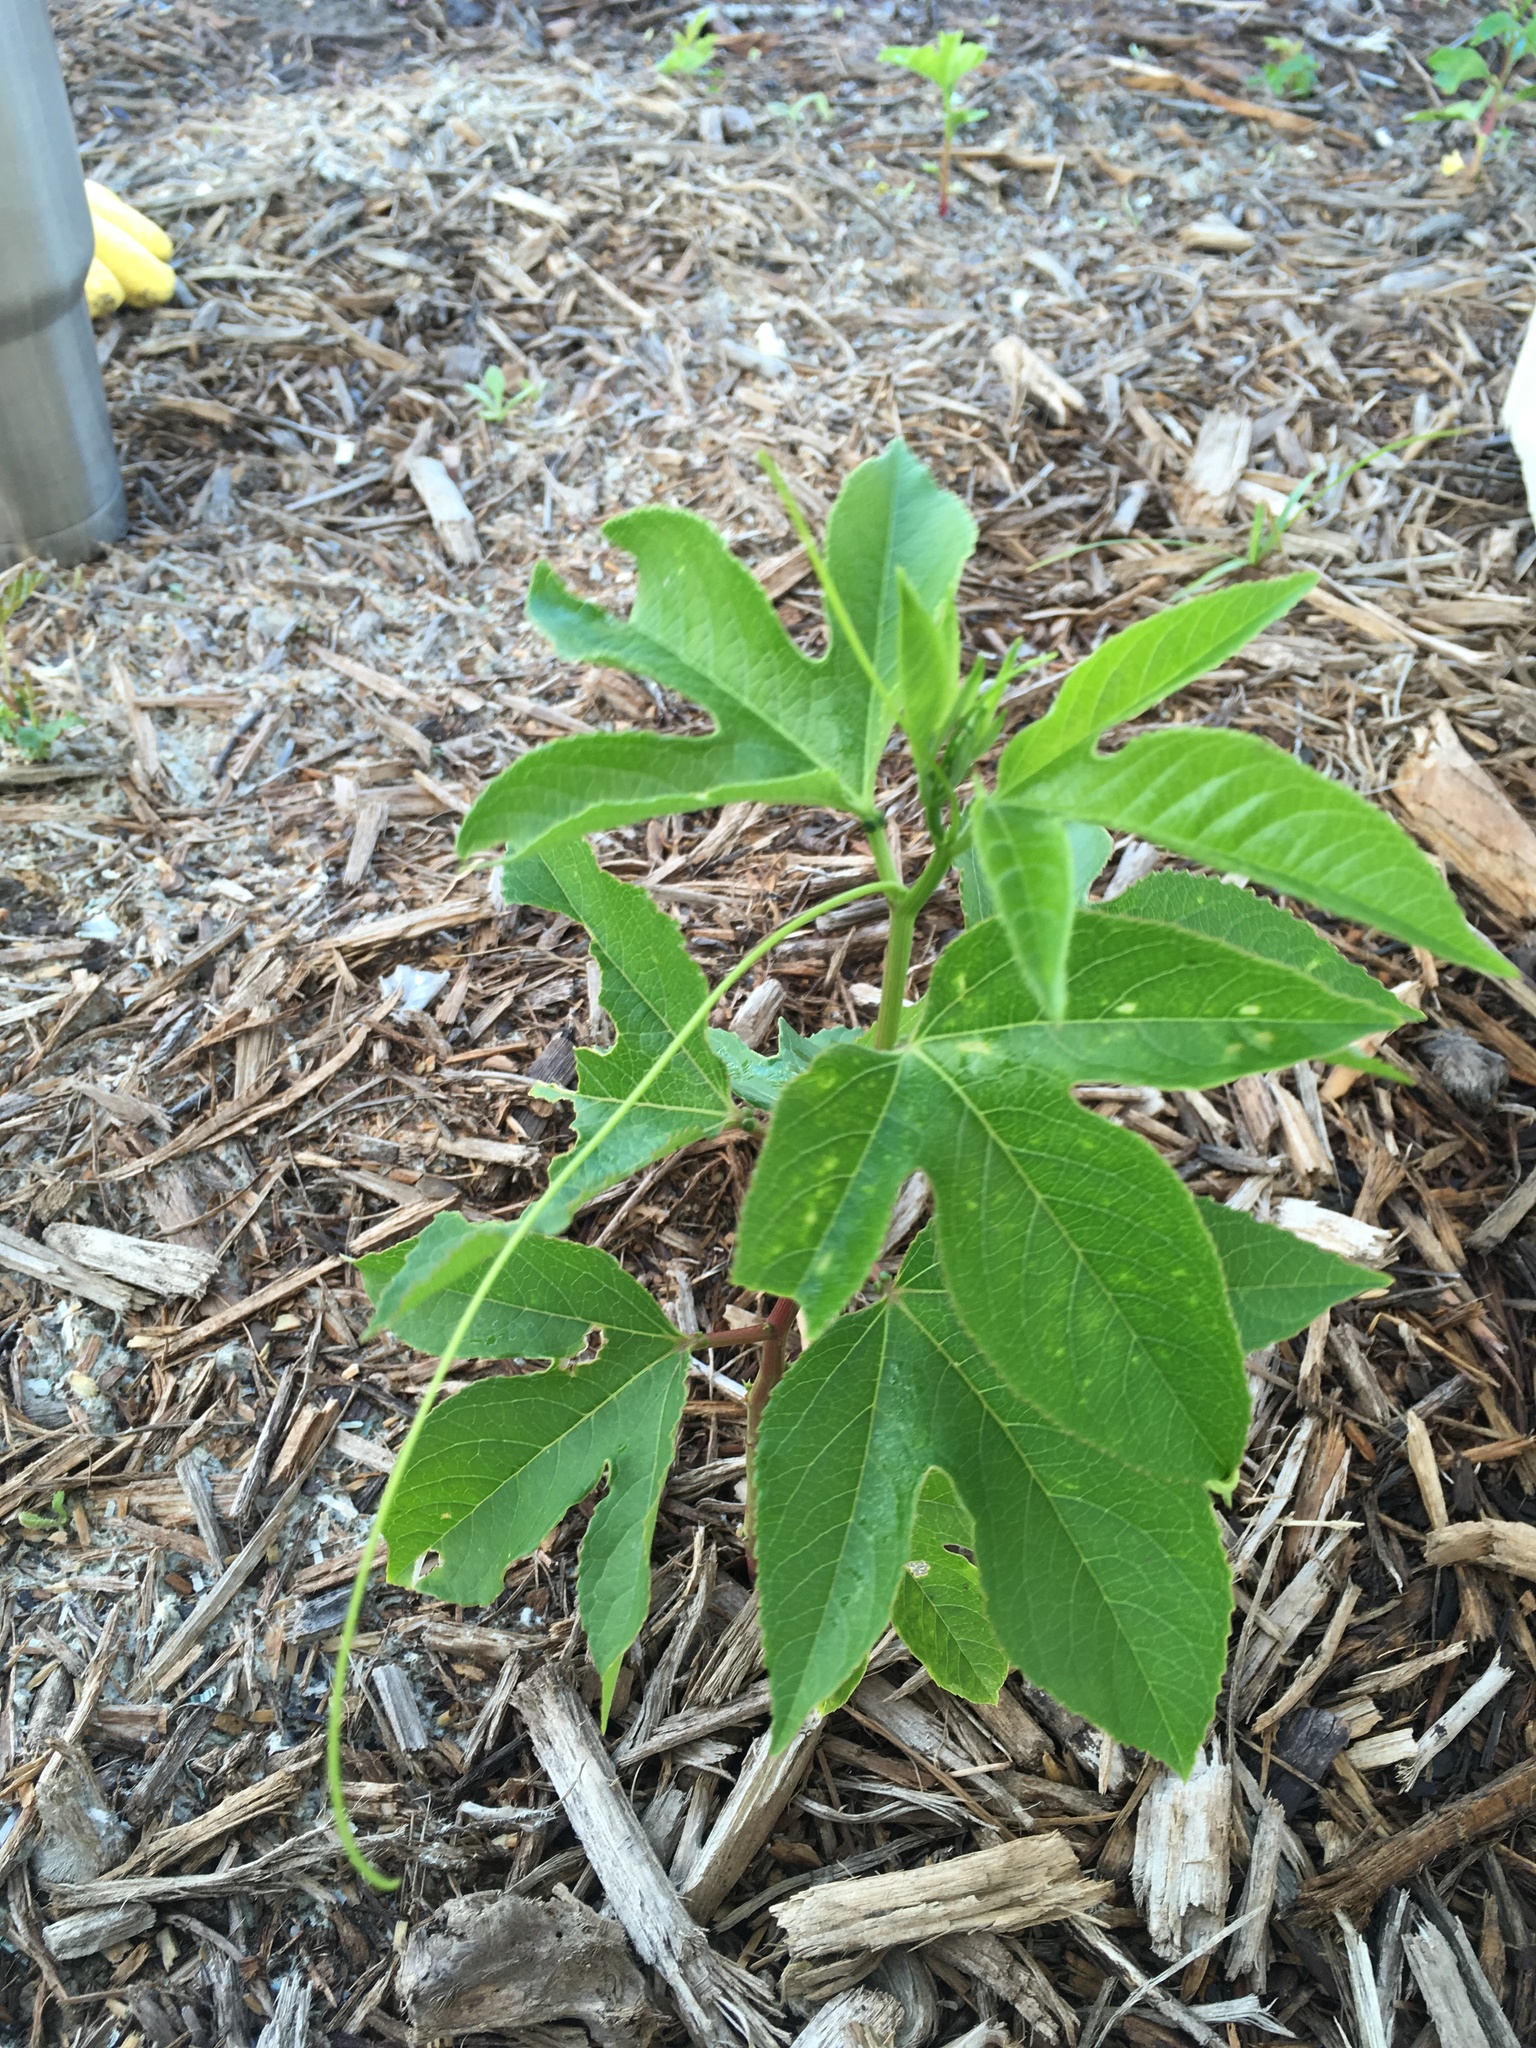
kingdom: Plantae
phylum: Tracheophyta
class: Magnoliopsida
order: Malpighiales
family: Passifloraceae
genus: Passiflora
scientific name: Passiflora incarnata
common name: Apricot-vine
